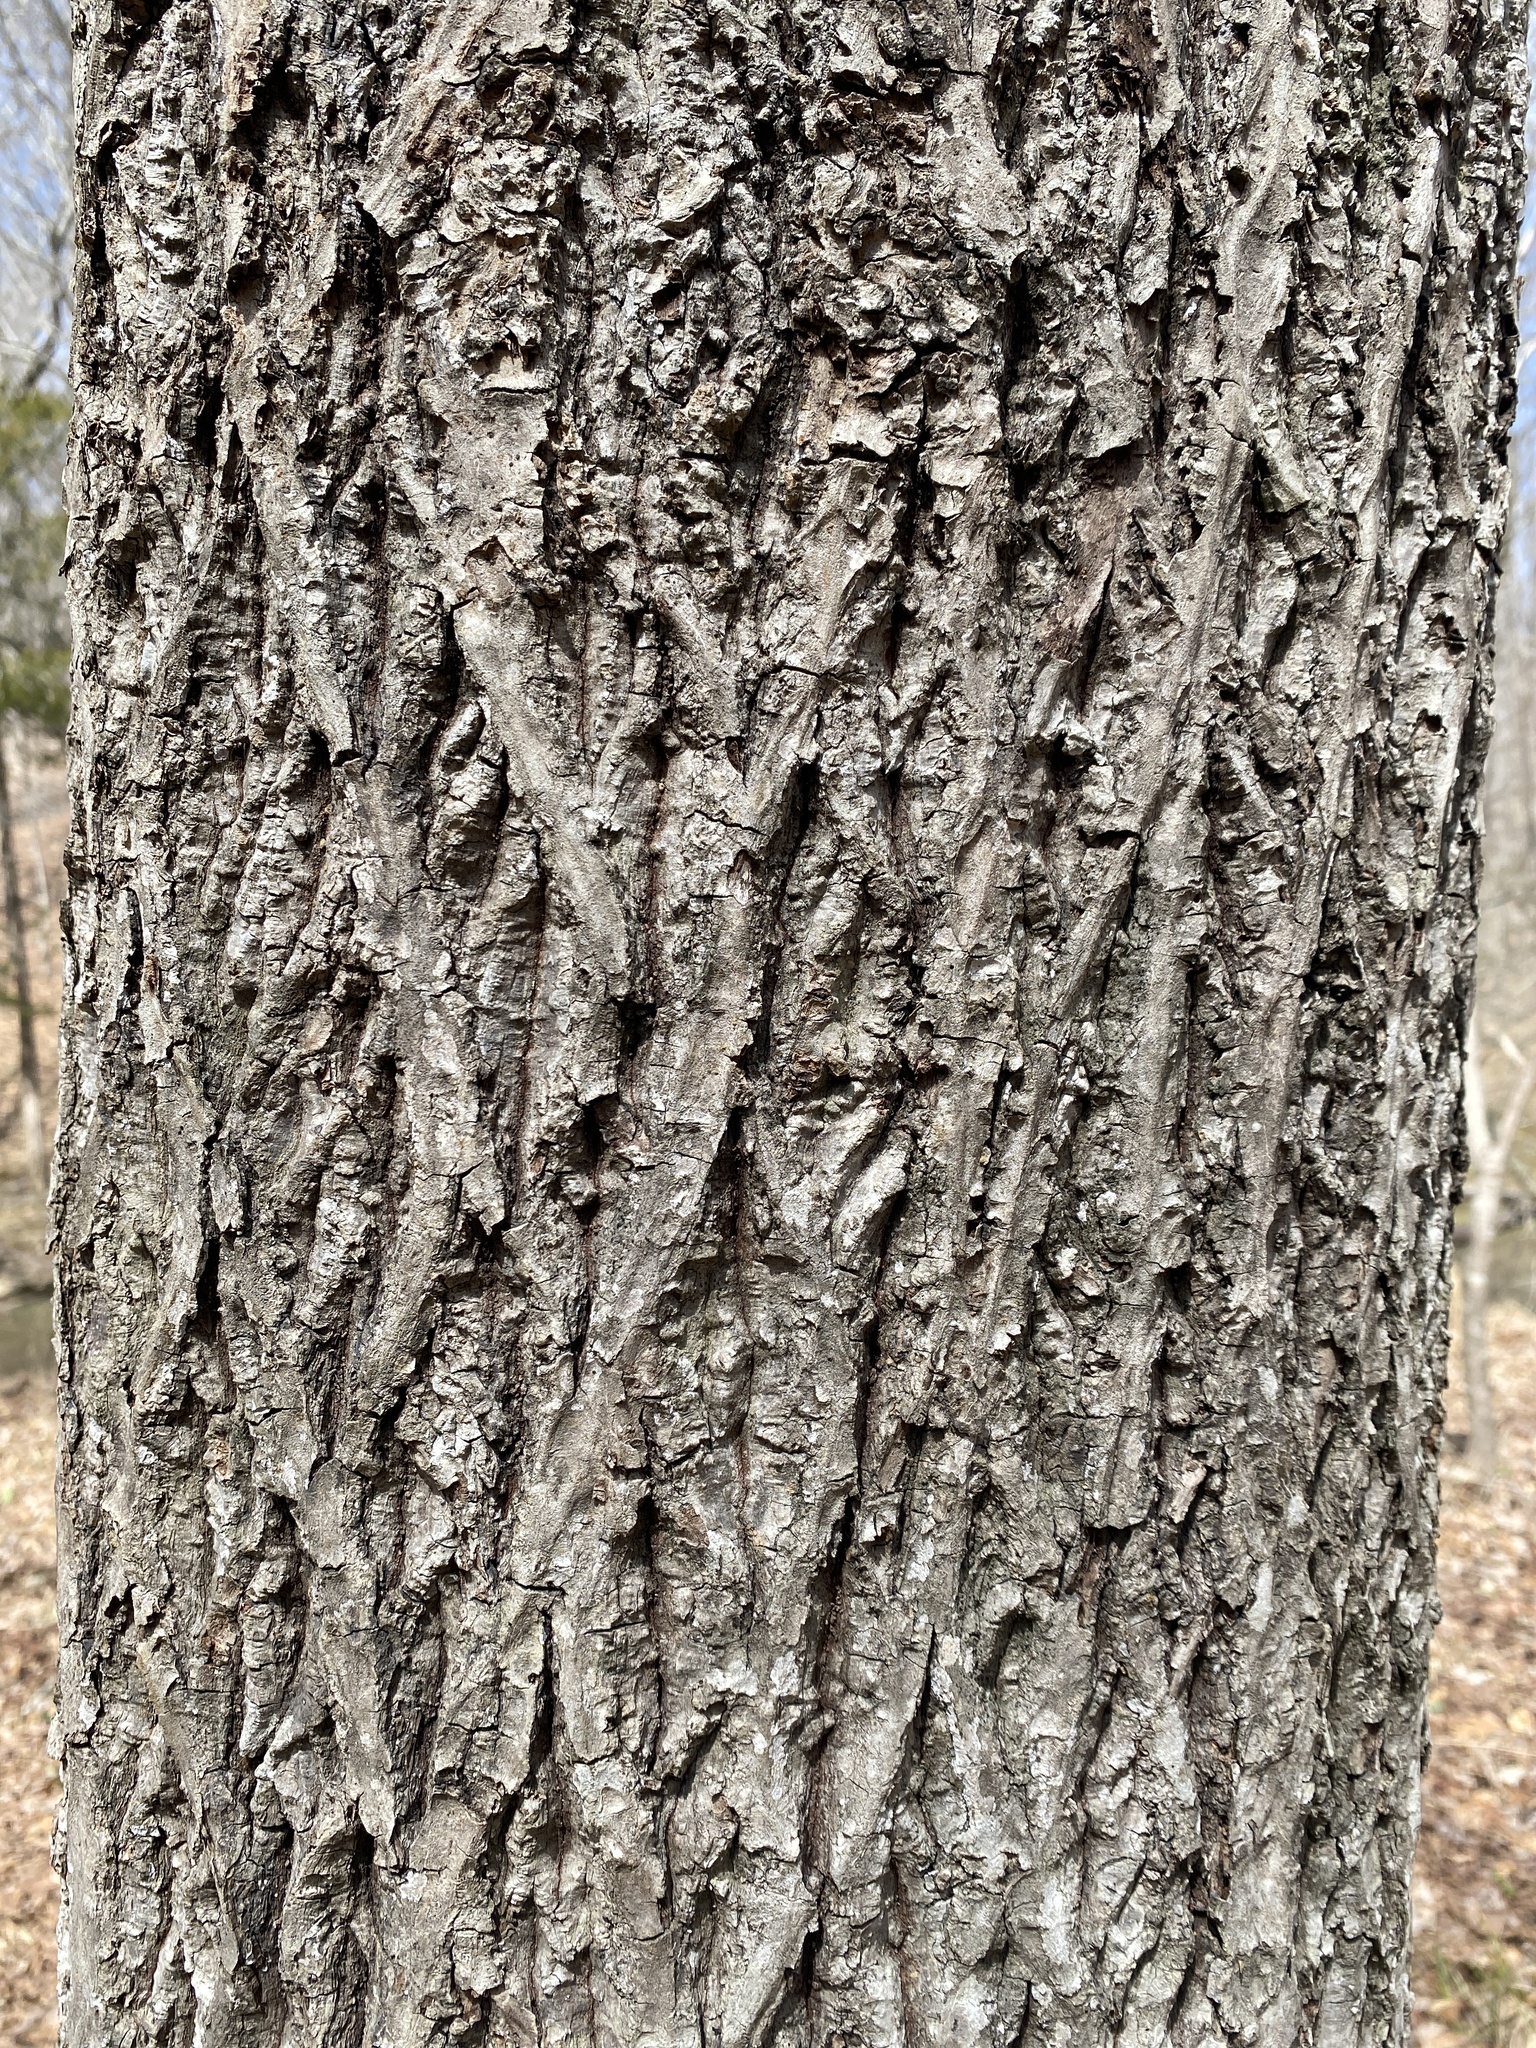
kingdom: Plantae
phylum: Tracheophyta
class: Magnoliopsida
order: Fagales
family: Juglandaceae
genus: Carya
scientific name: Carya alba
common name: Mockernut hickory
